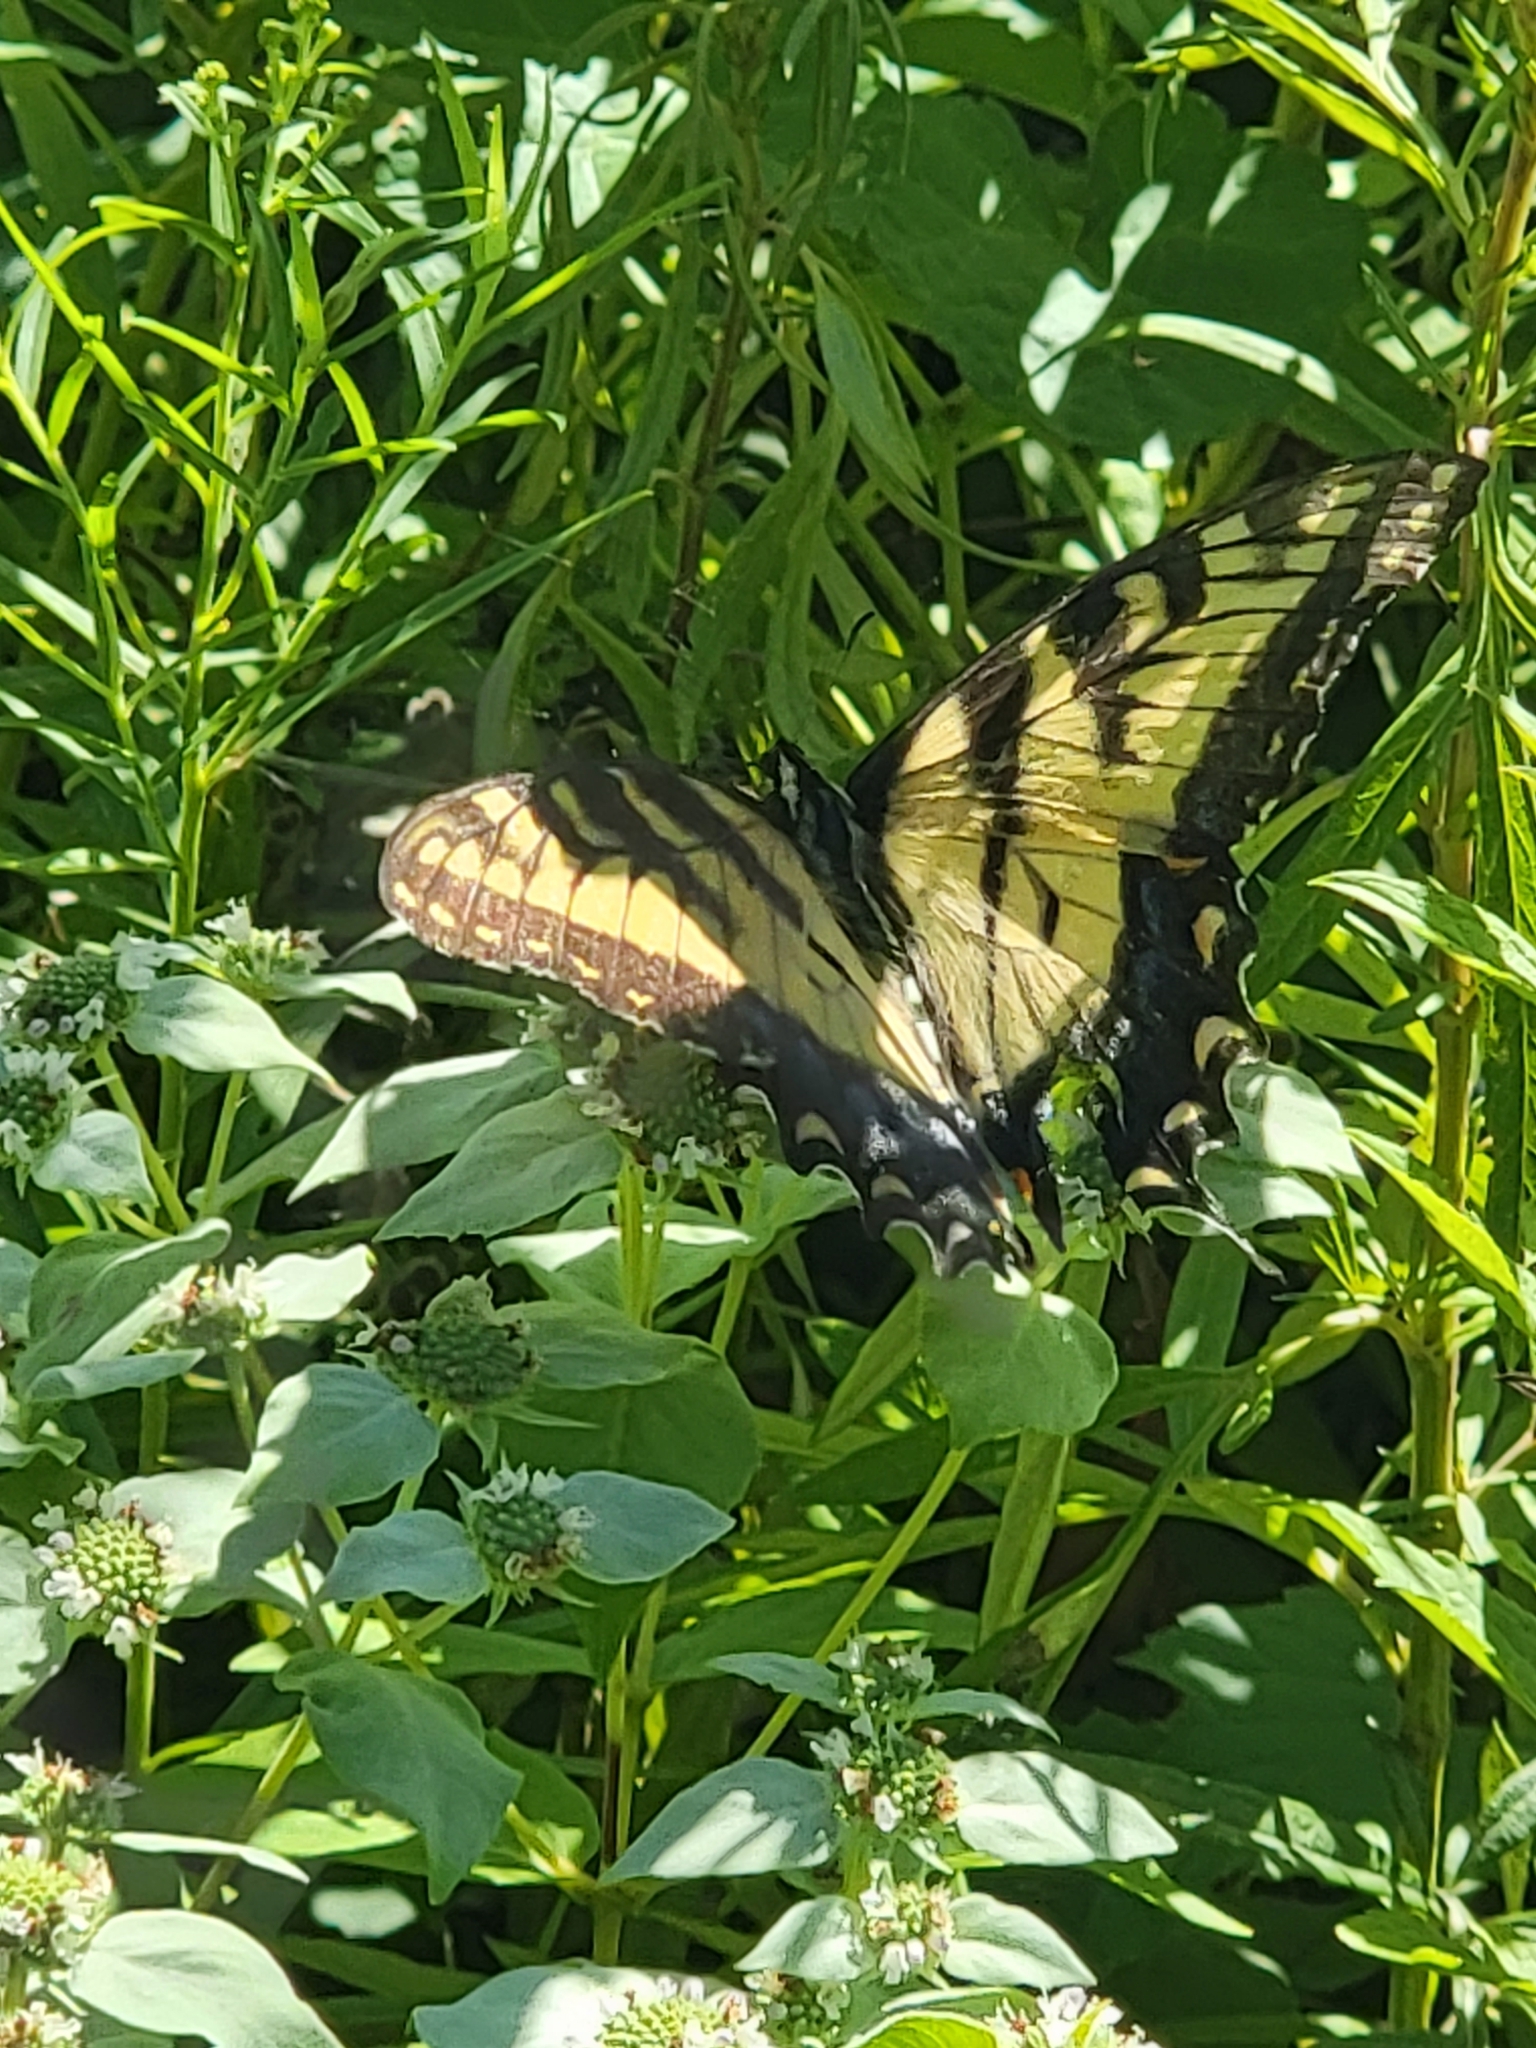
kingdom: Animalia
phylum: Arthropoda
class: Insecta
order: Lepidoptera
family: Papilionidae
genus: Papilio
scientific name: Papilio glaucus
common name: Tiger swallowtail
